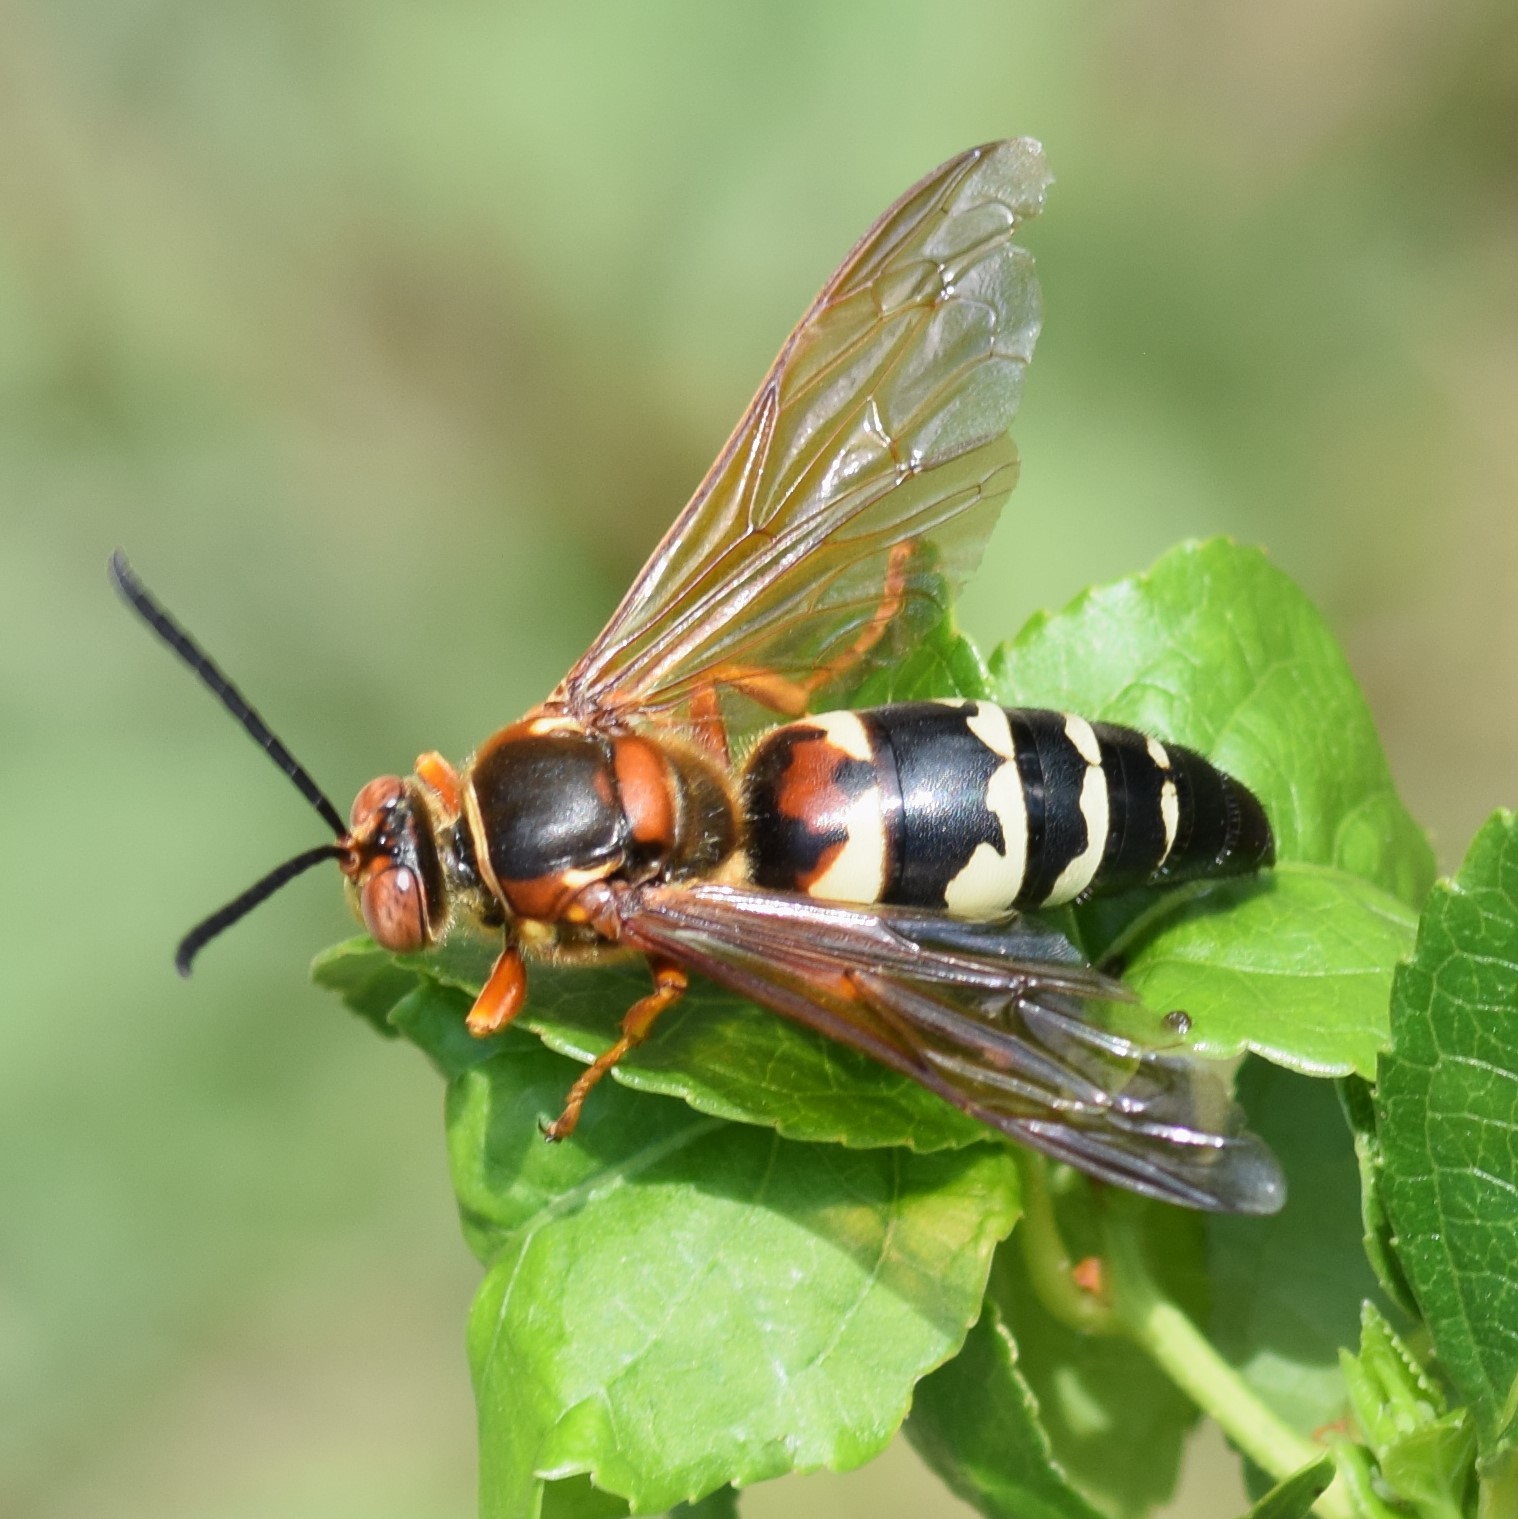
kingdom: Animalia
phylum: Arthropoda
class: Insecta
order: Hymenoptera
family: Crabronidae
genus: Sphecius
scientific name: Sphecius speciosus
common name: Cicada killer
